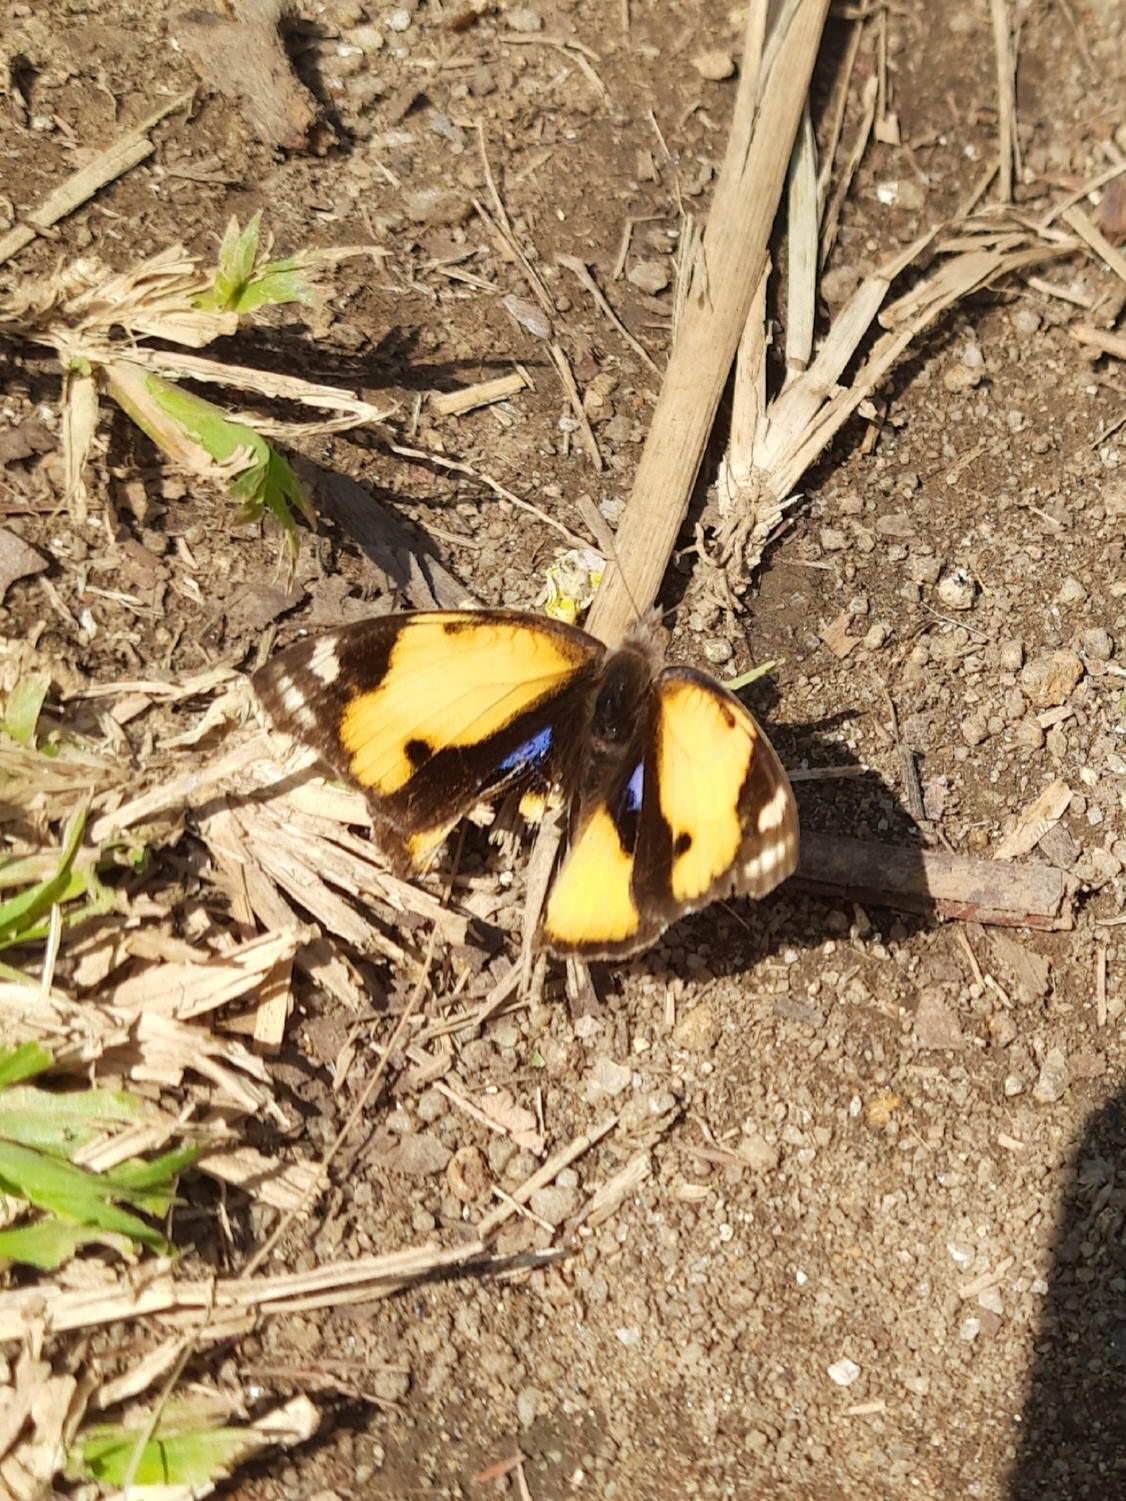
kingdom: Animalia
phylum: Arthropoda
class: Insecta
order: Lepidoptera
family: Nymphalidae
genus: Junonia
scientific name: Junonia hierta
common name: Yellow pansy
